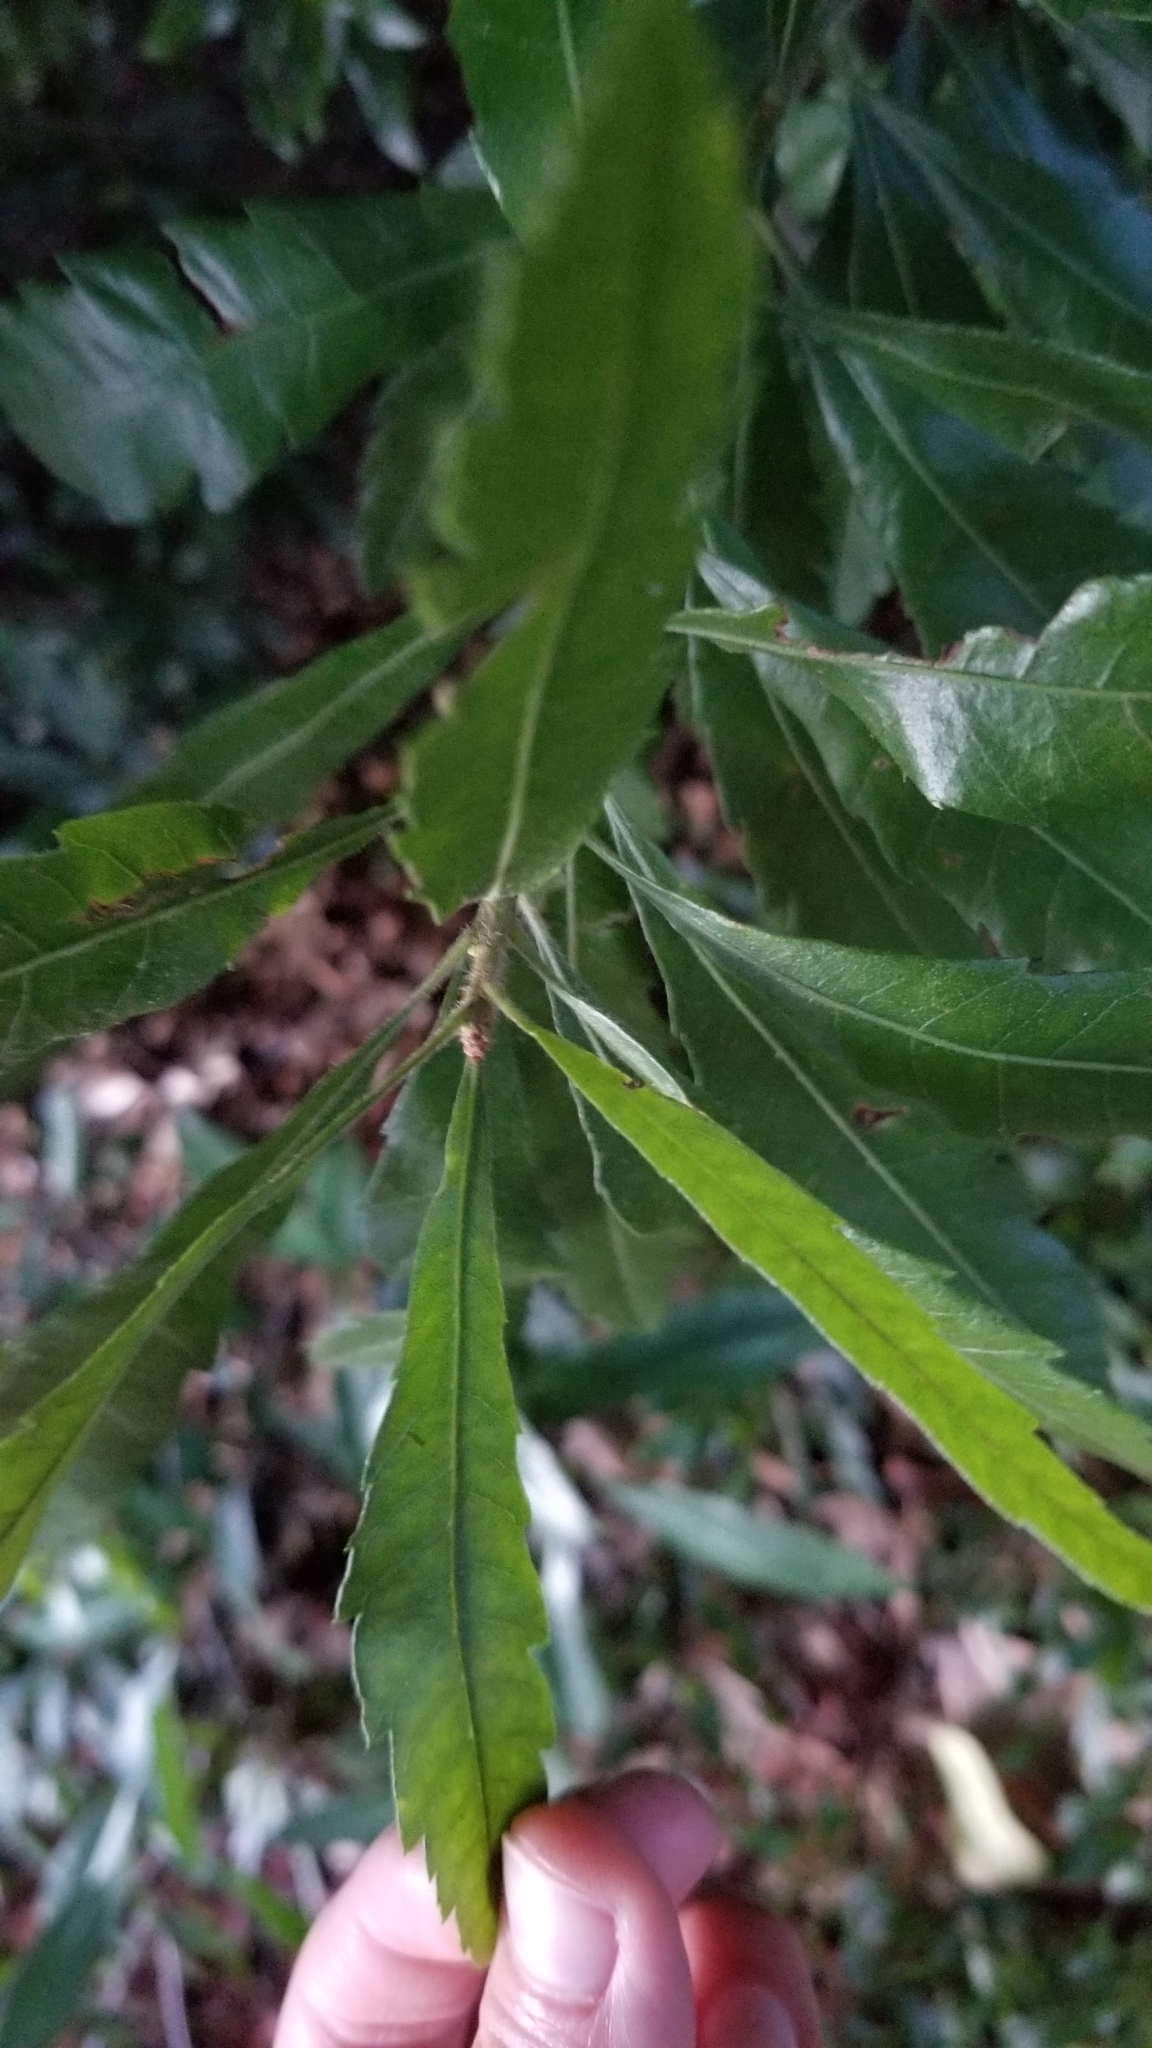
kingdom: Plantae
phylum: Tracheophyta
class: Magnoliopsida
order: Fagales
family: Myricaceae
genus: Morella
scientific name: Morella cerifera
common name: Wax myrtle
